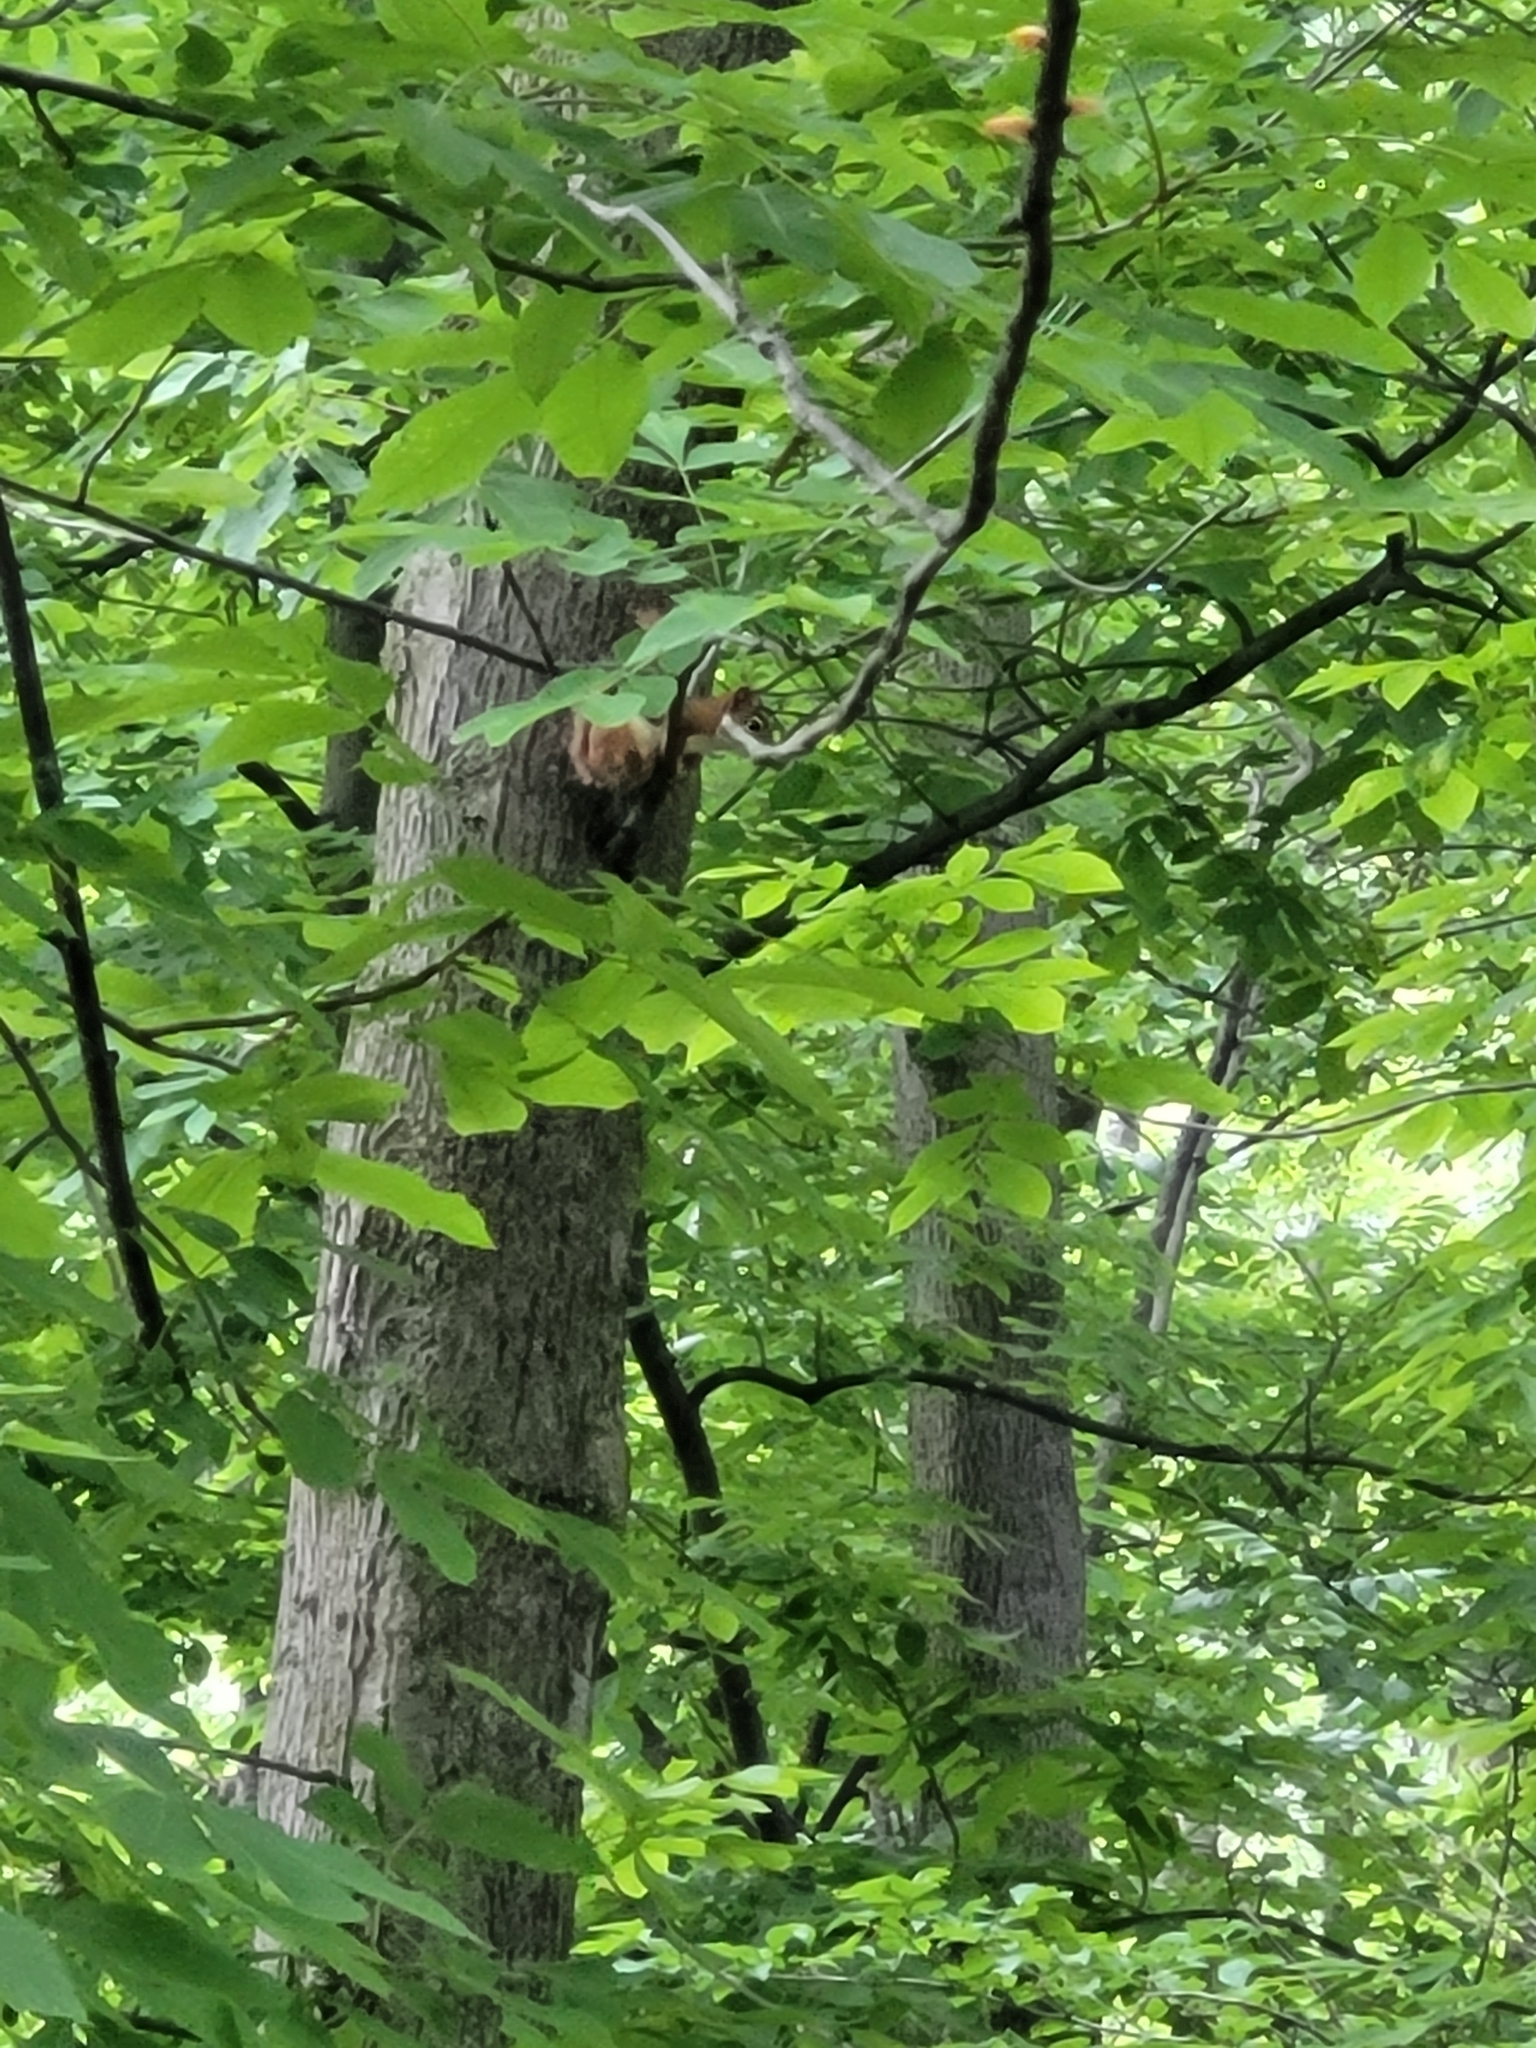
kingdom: Animalia
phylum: Chordata
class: Mammalia
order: Rodentia
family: Sciuridae
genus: Tamiasciurus
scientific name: Tamiasciurus hudsonicus
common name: Red squirrel
